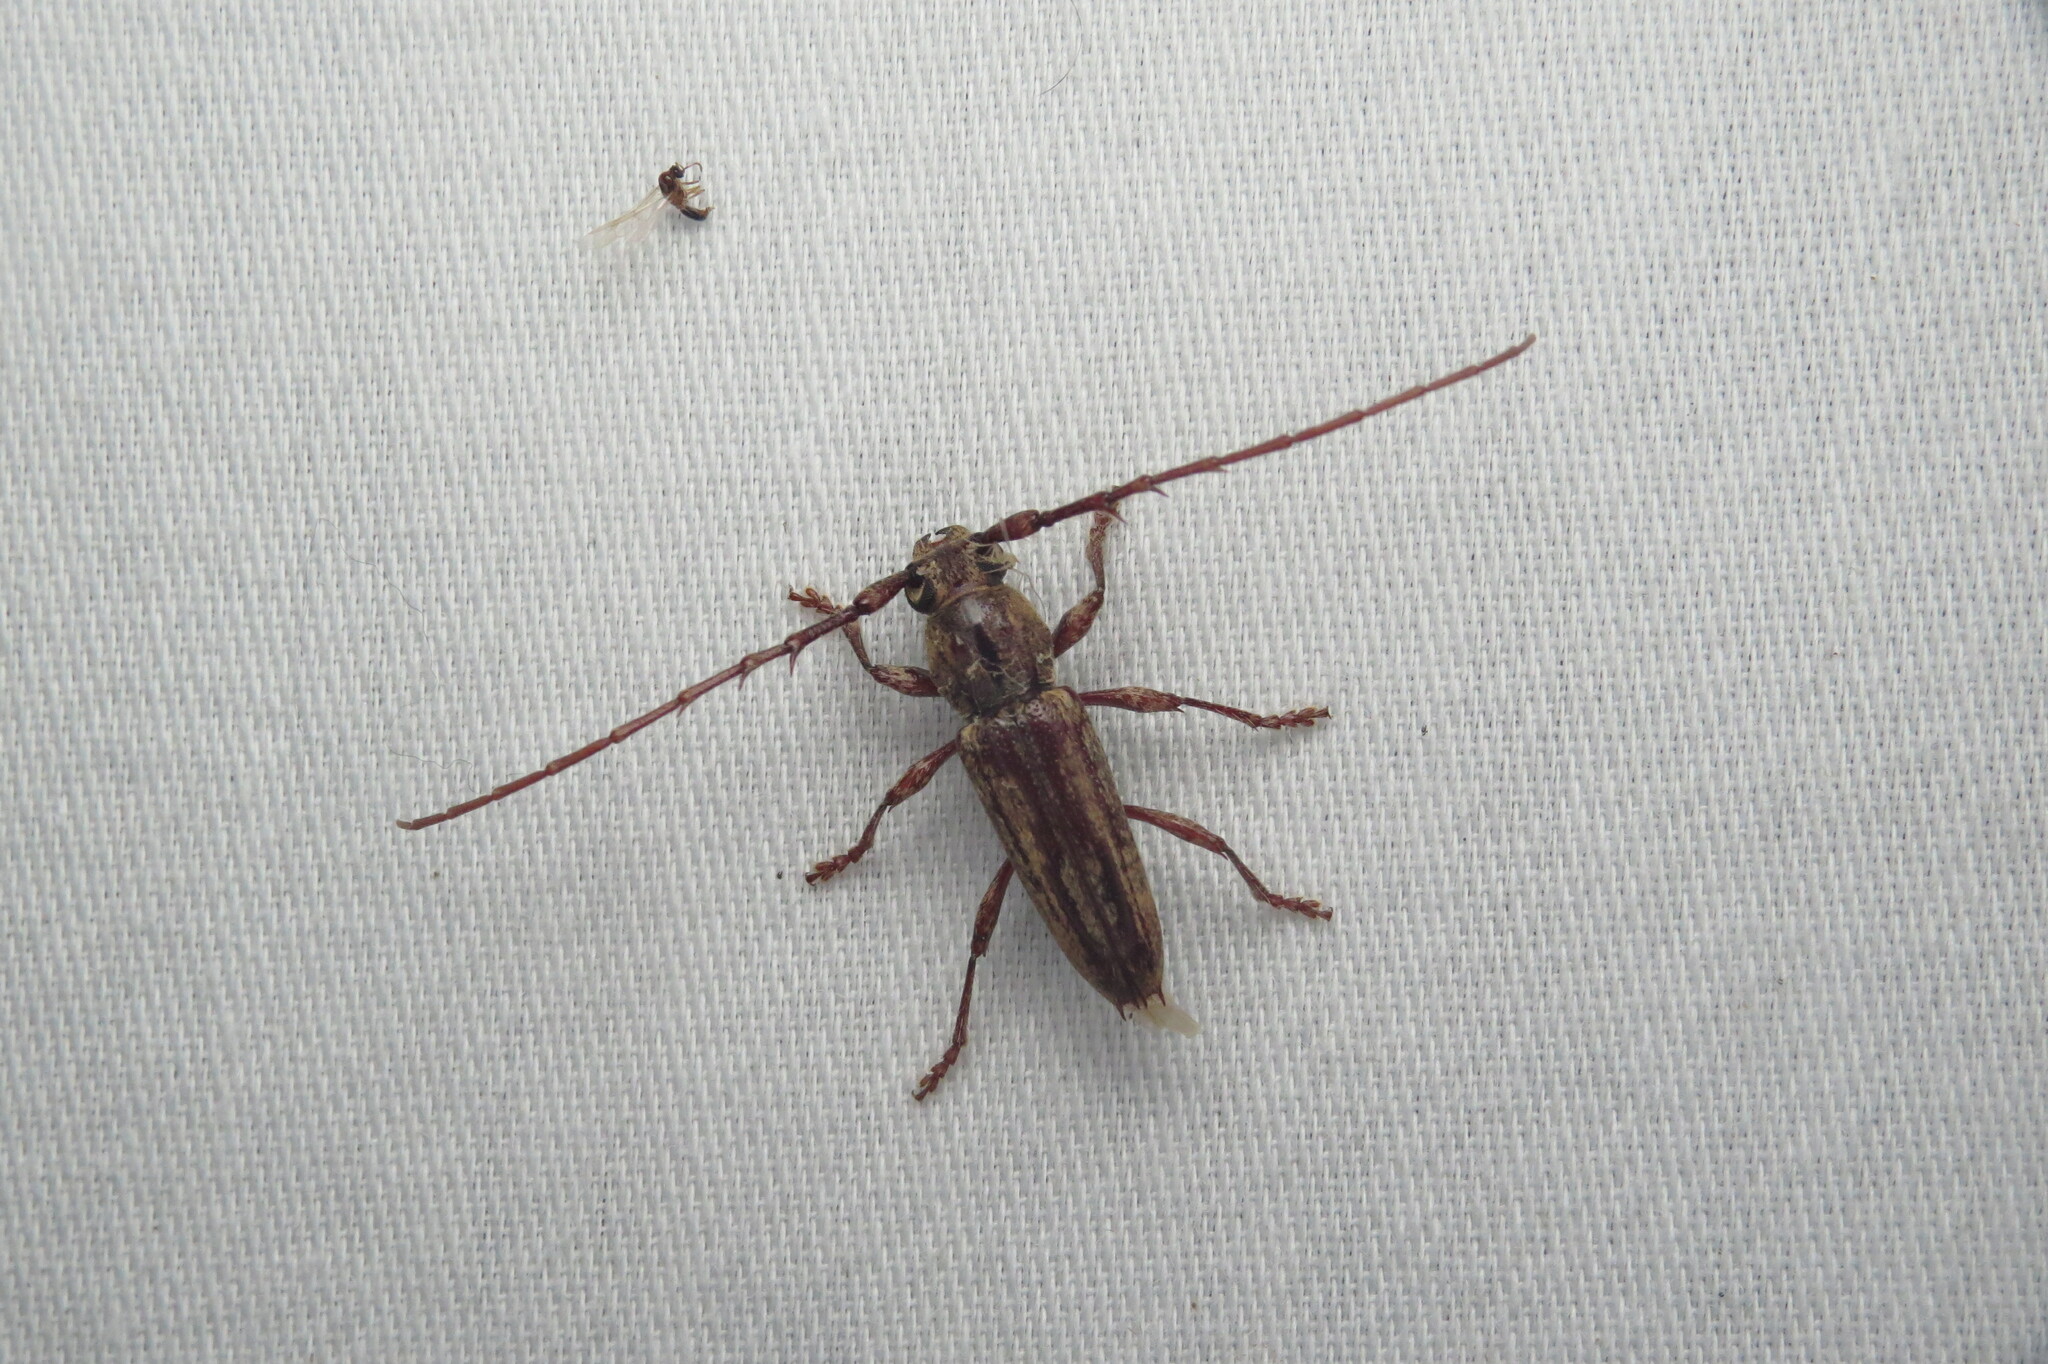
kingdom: Animalia
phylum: Arthropoda
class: Insecta
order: Coleoptera
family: Cerambycidae
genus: Elaphidion
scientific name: Elaphidion mayesae
